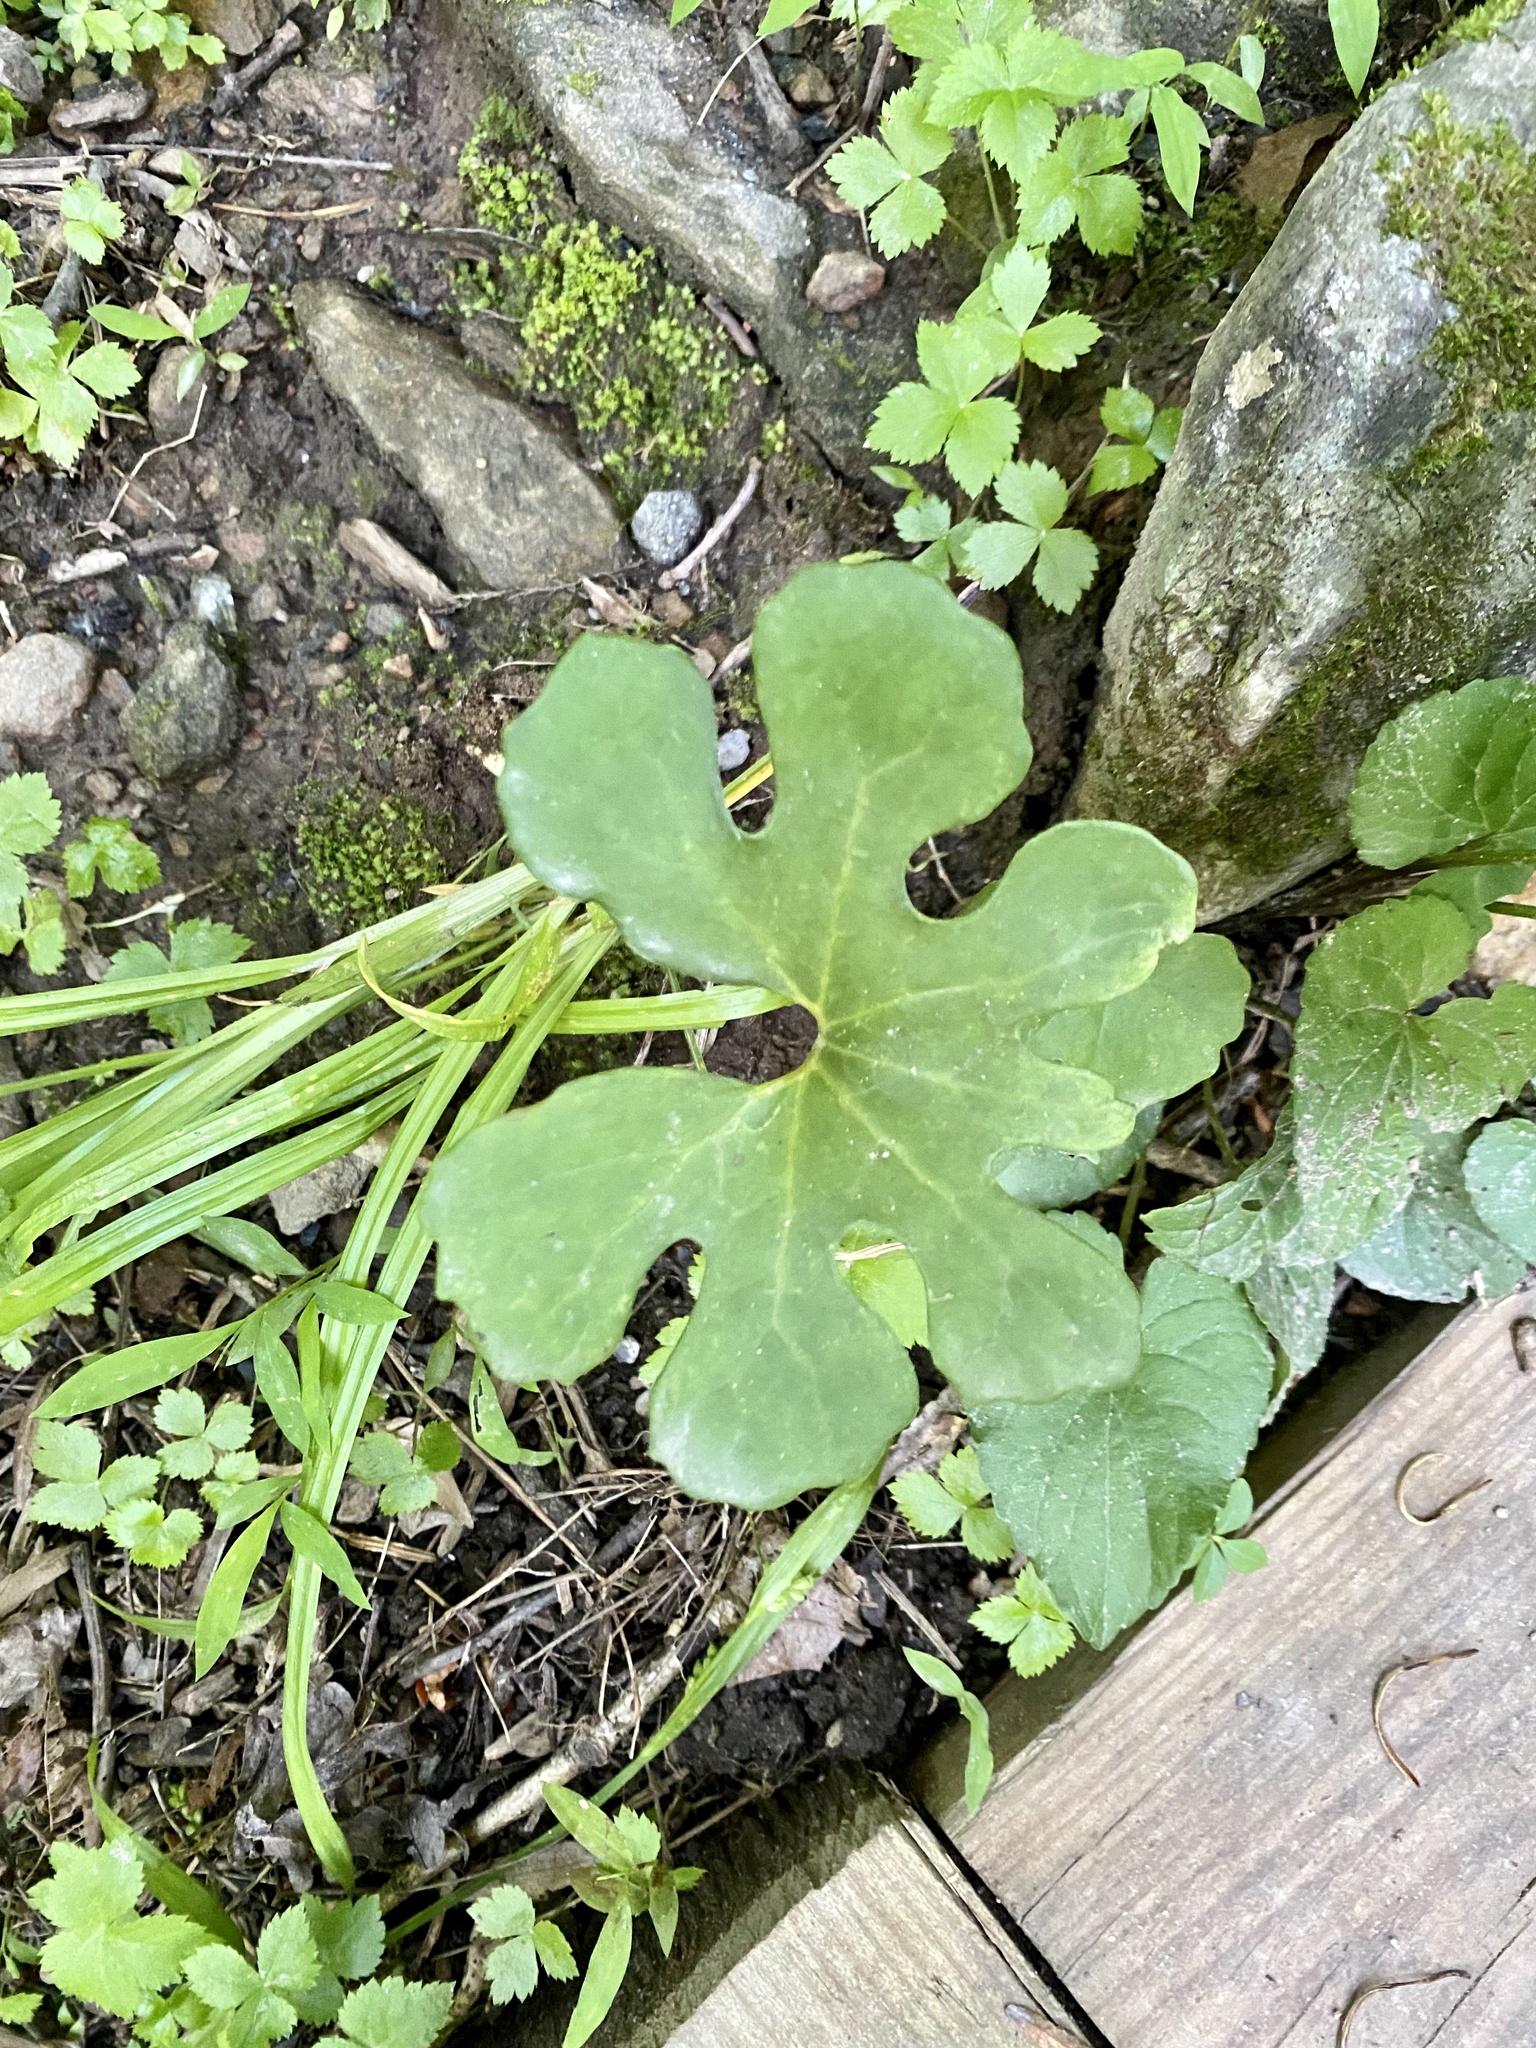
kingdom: Plantae
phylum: Tracheophyta
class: Magnoliopsida
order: Ranunculales
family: Papaveraceae
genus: Sanguinaria
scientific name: Sanguinaria canadensis
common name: Bloodroot
